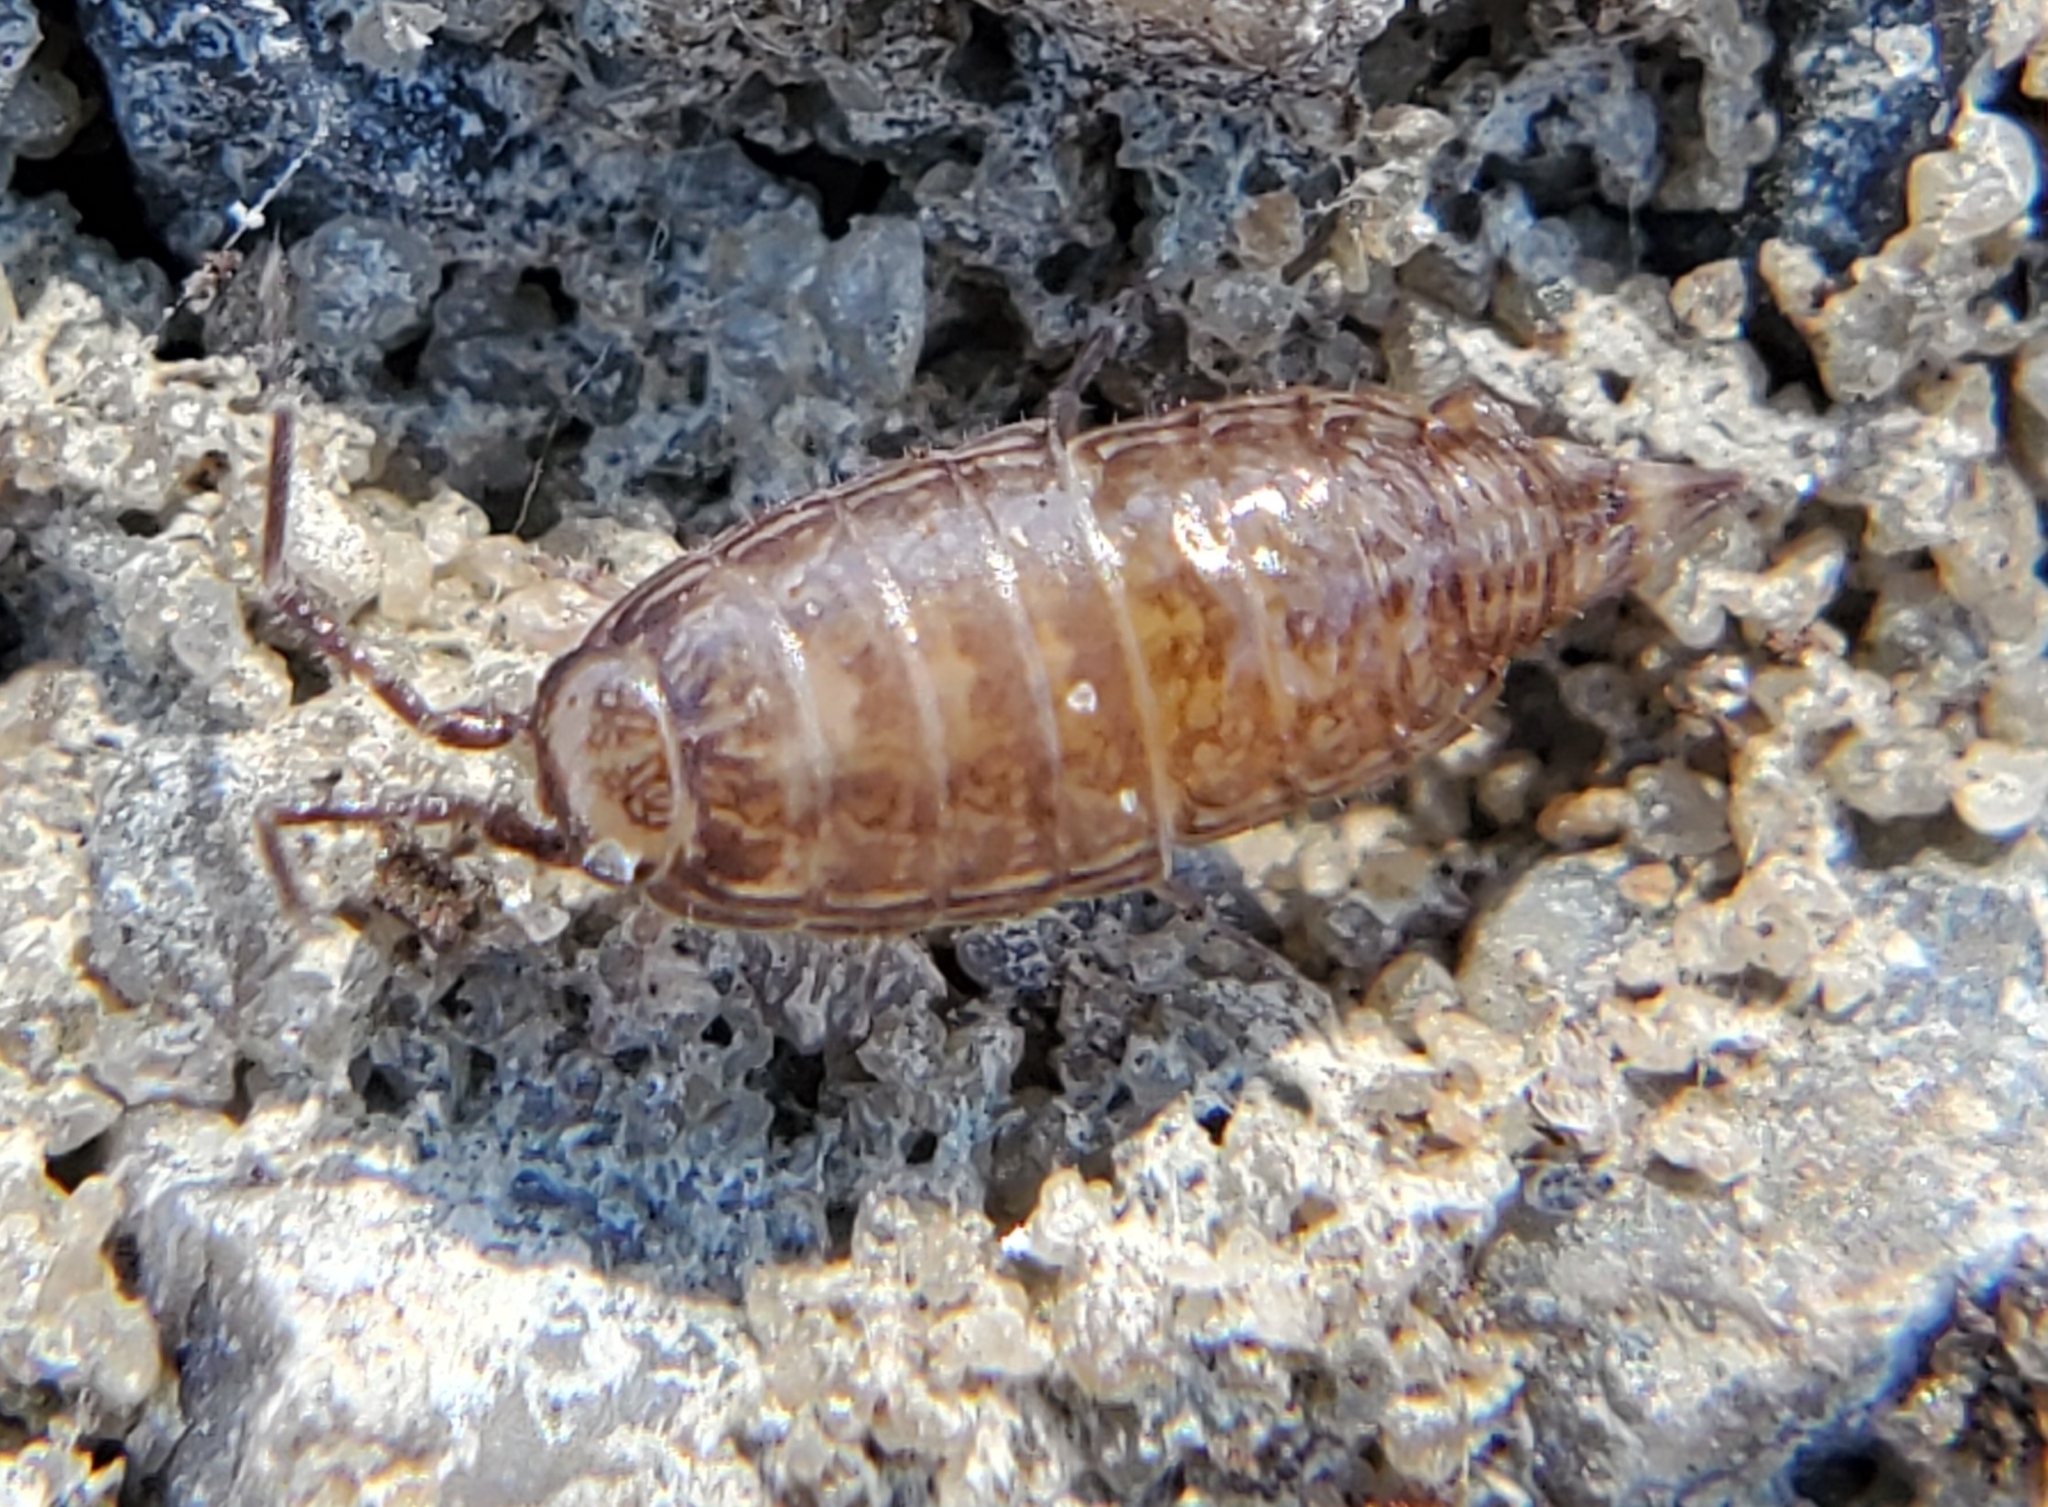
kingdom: Animalia
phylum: Arthropoda
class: Malacostraca
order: Isopoda
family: Philosciidae
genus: Atlantoscia
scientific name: Atlantoscia floridana
